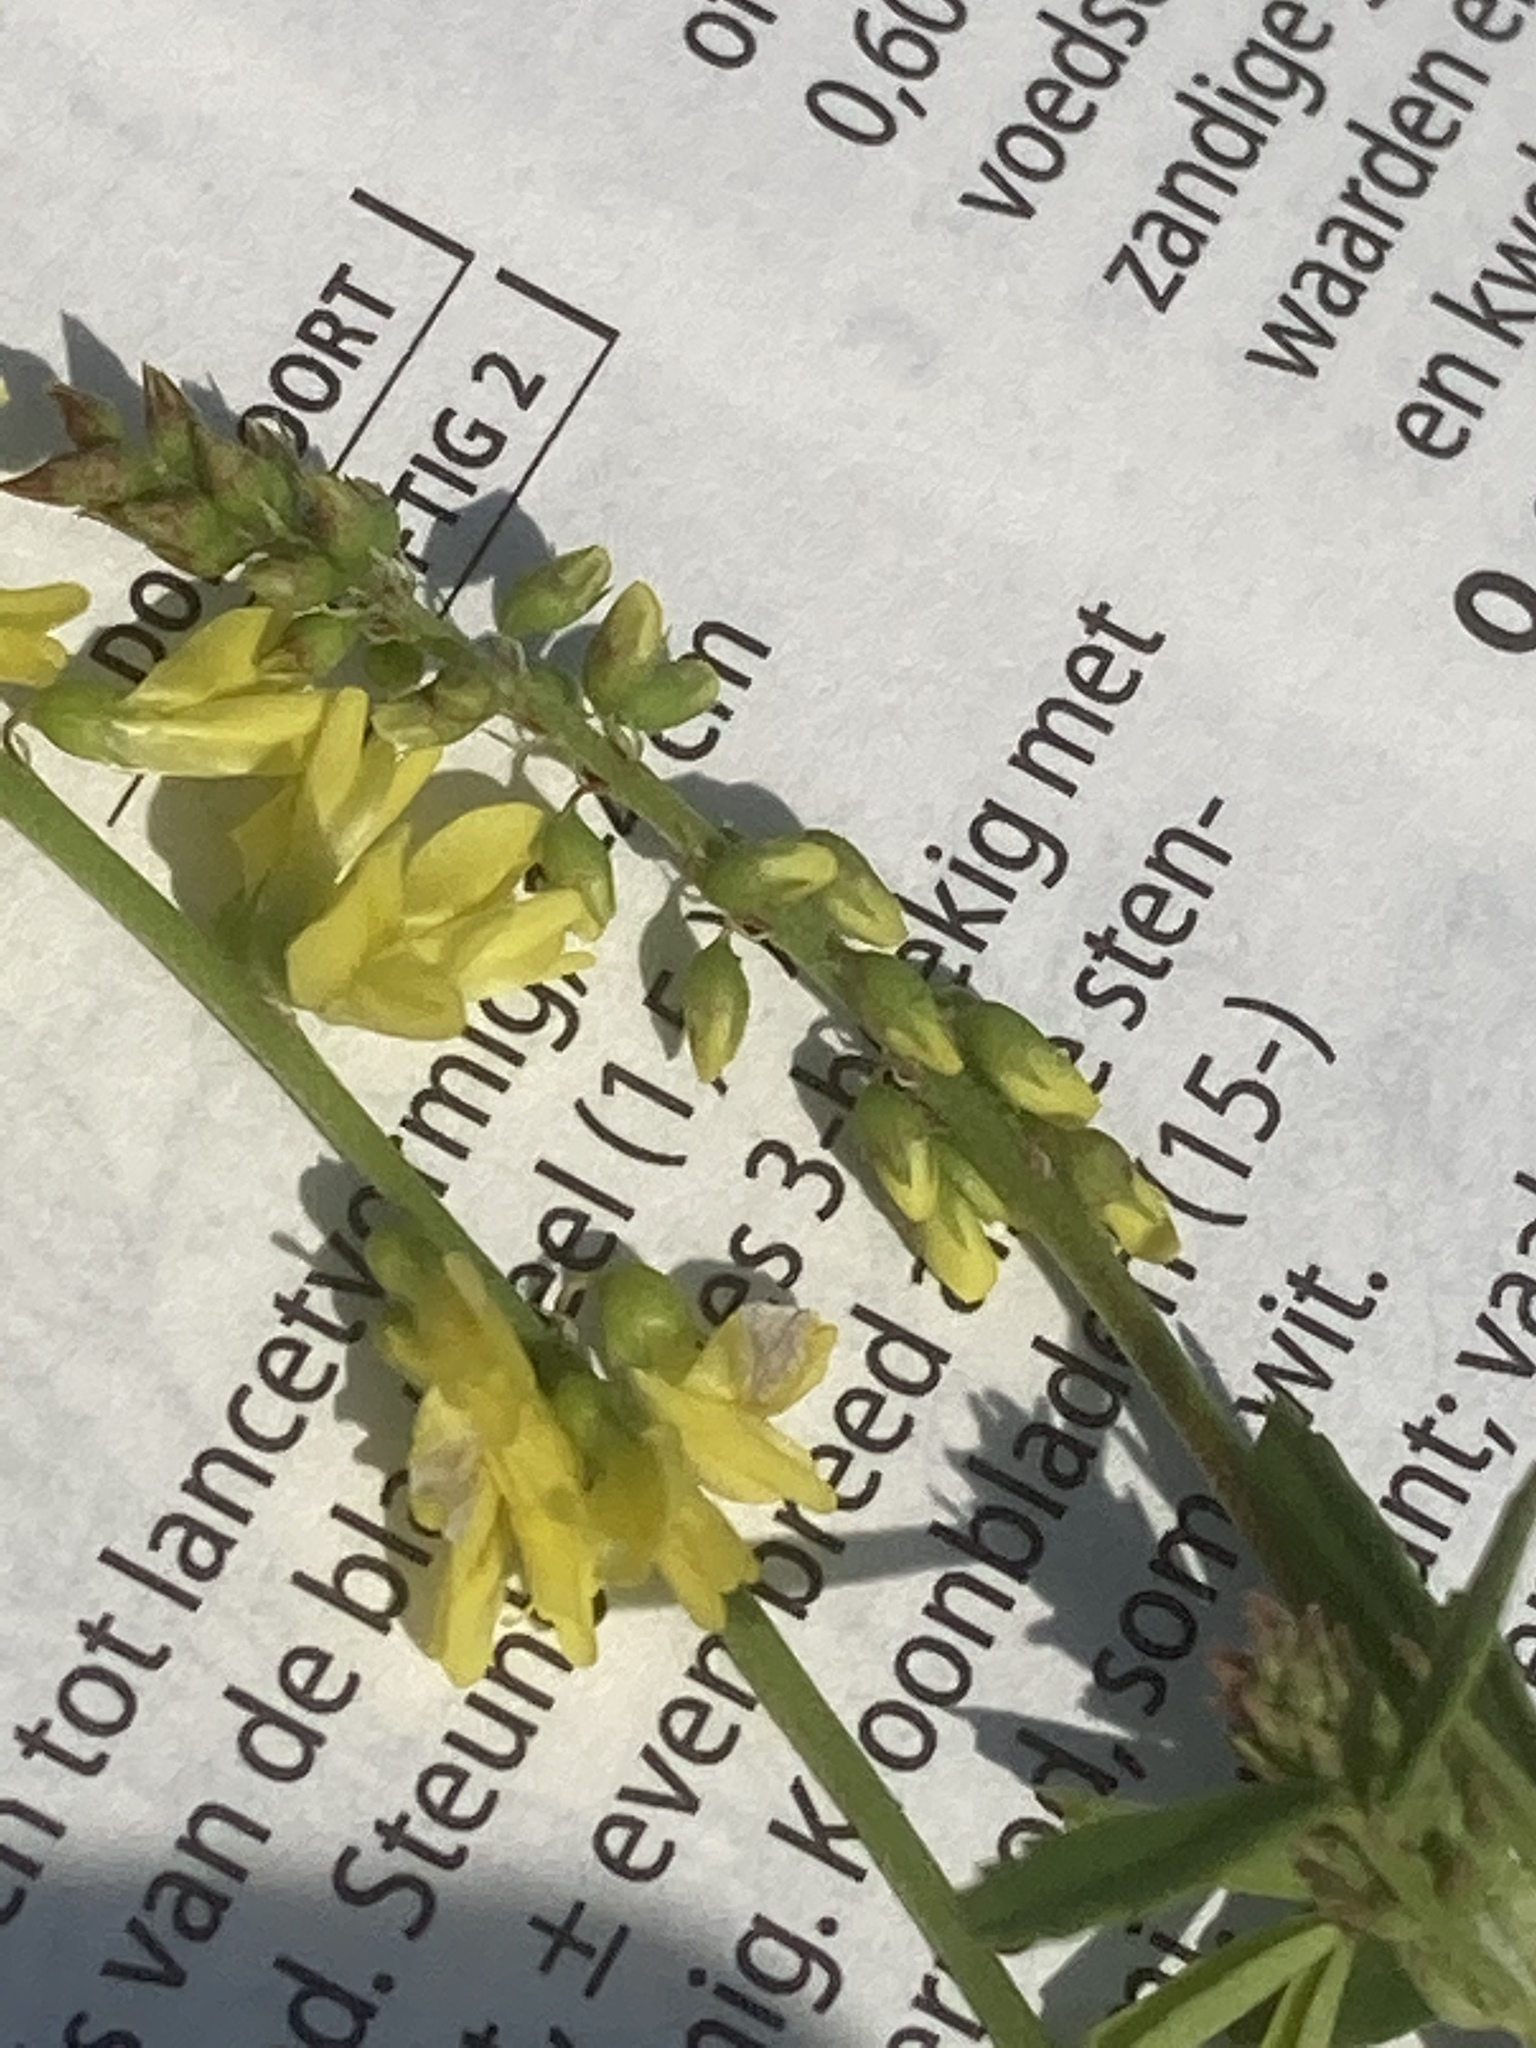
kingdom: Plantae
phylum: Tracheophyta
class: Magnoliopsida
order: Fabales
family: Fabaceae
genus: Melilotus
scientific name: Melilotus officinalis
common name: Sweetclover
